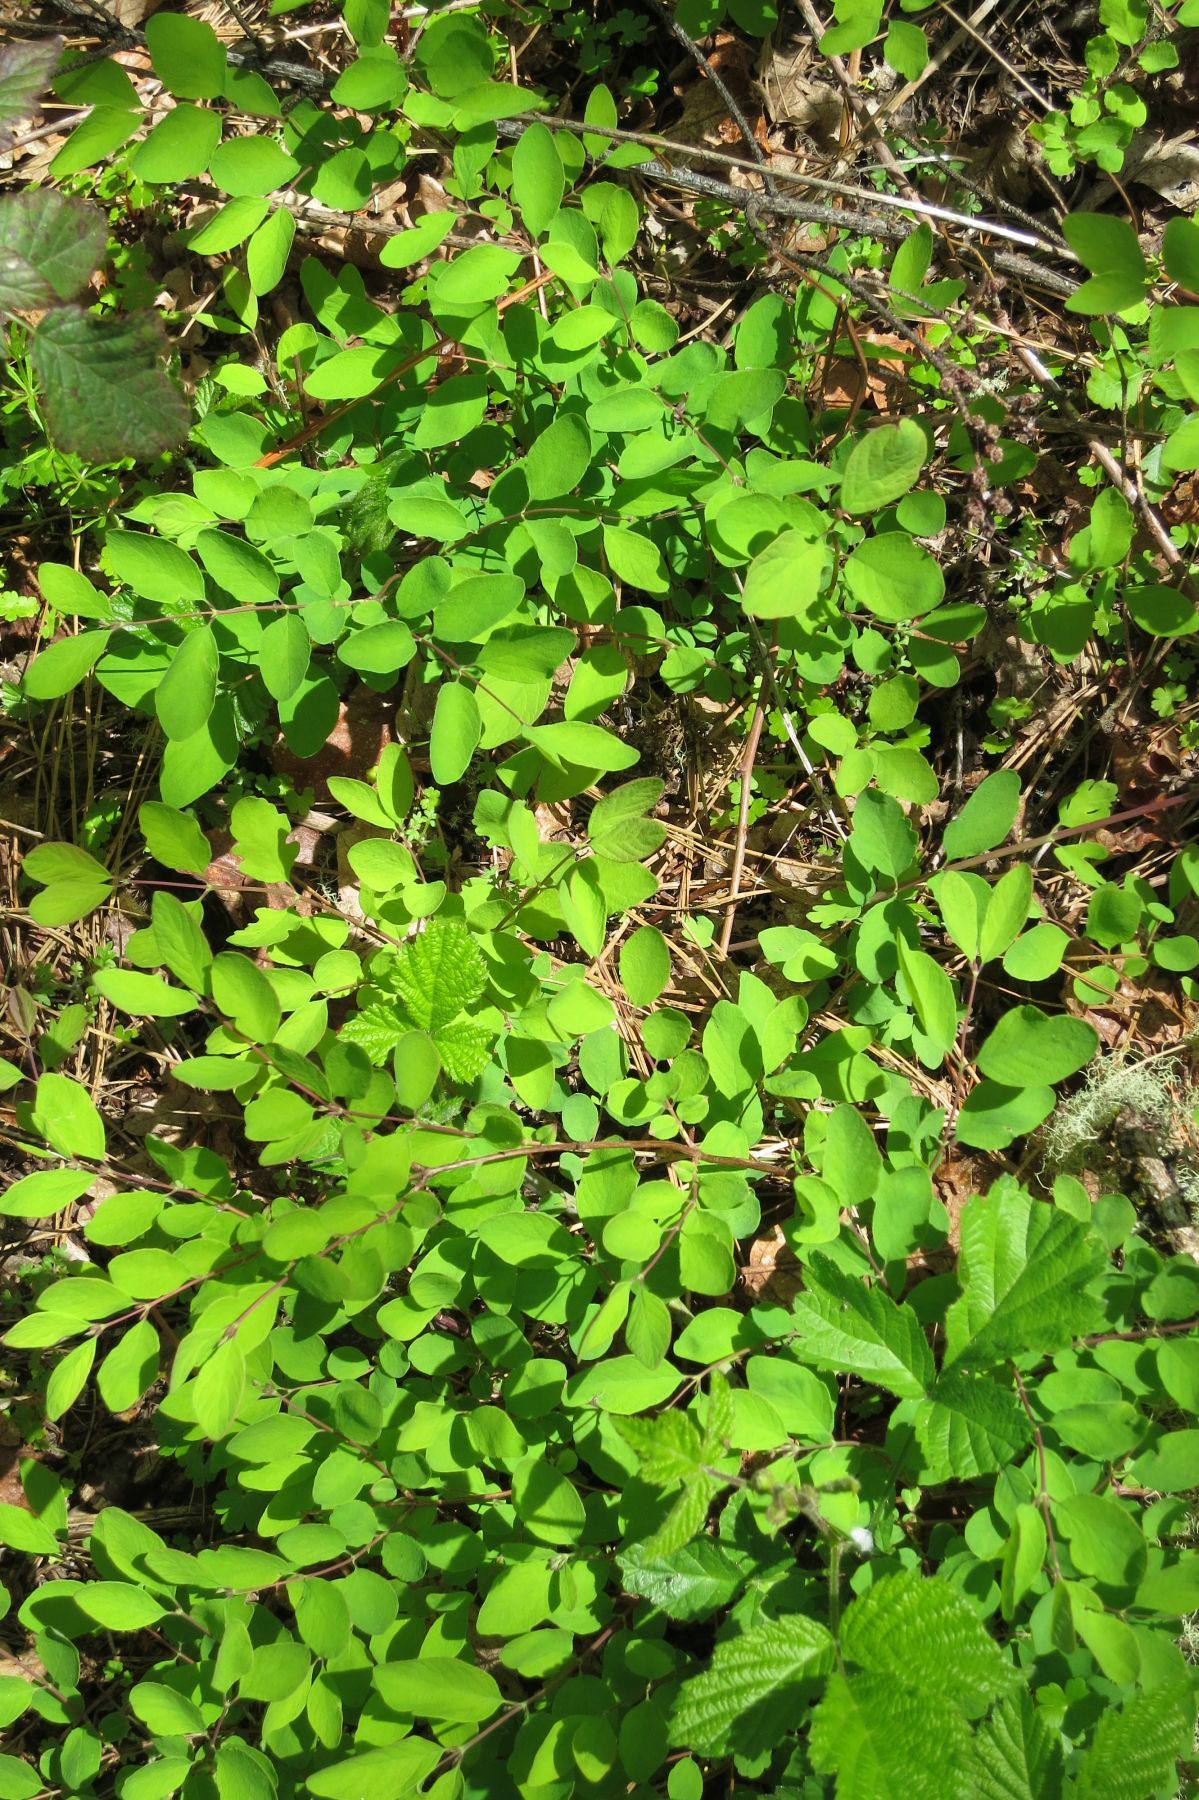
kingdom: Plantae
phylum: Tracheophyta
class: Magnoliopsida
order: Dipsacales
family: Caprifoliaceae
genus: Symphoricarpos
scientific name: Symphoricarpos mollis
